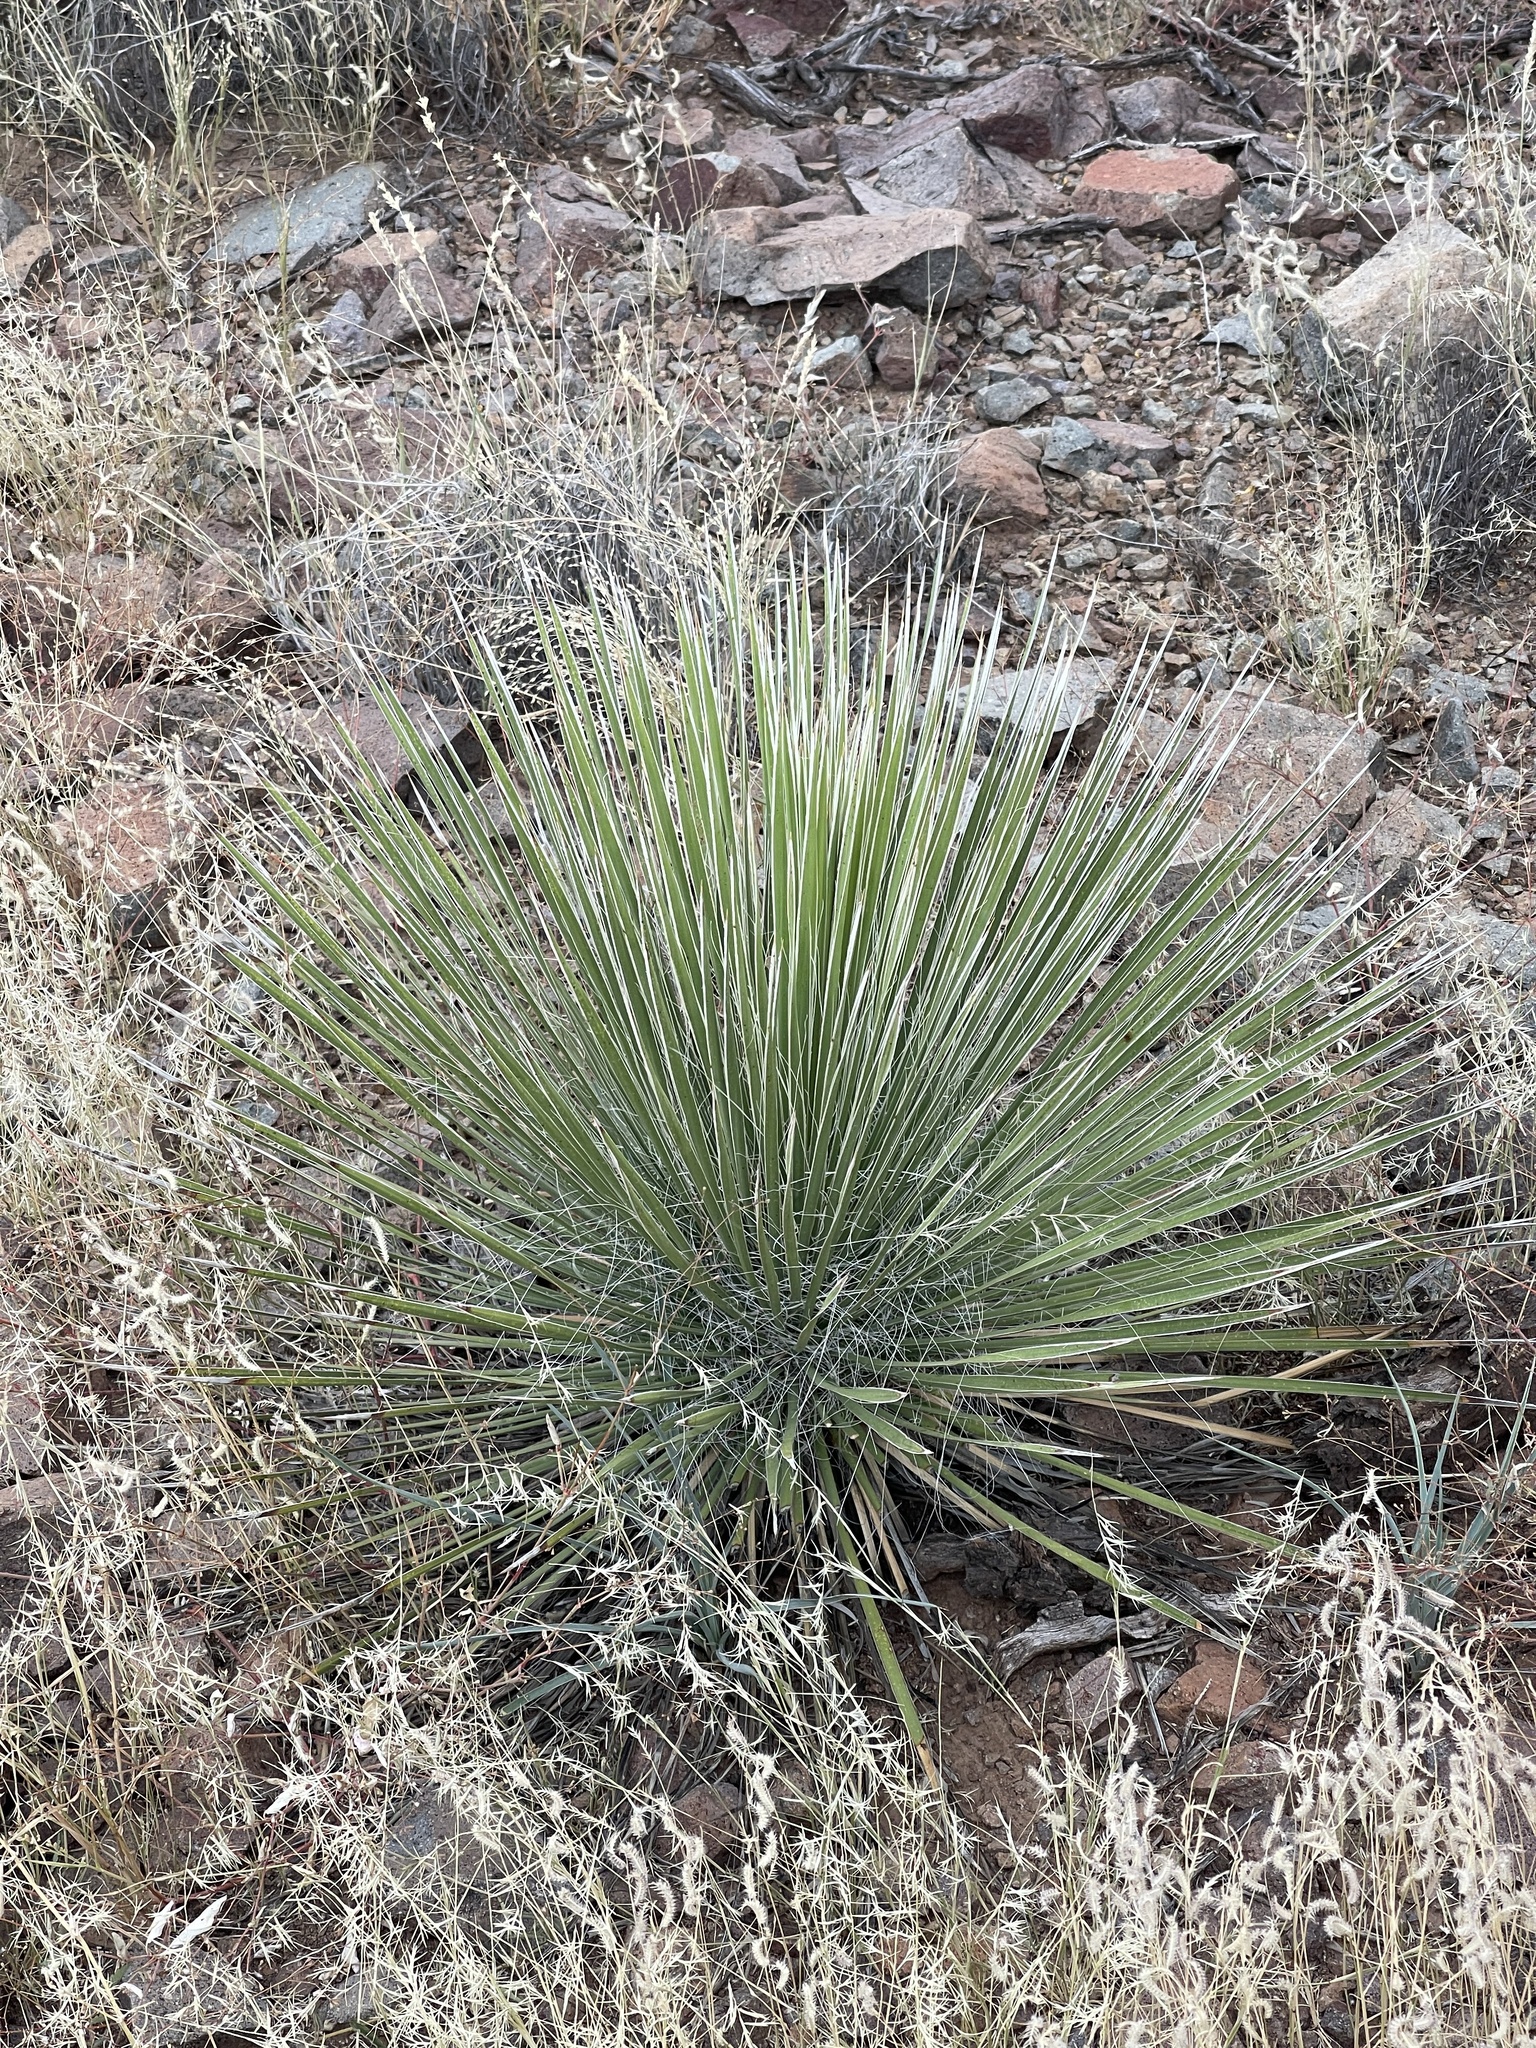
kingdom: Plantae
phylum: Tracheophyta
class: Liliopsida
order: Asparagales
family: Asparagaceae
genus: Yucca
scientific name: Yucca elata
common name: Palmella
